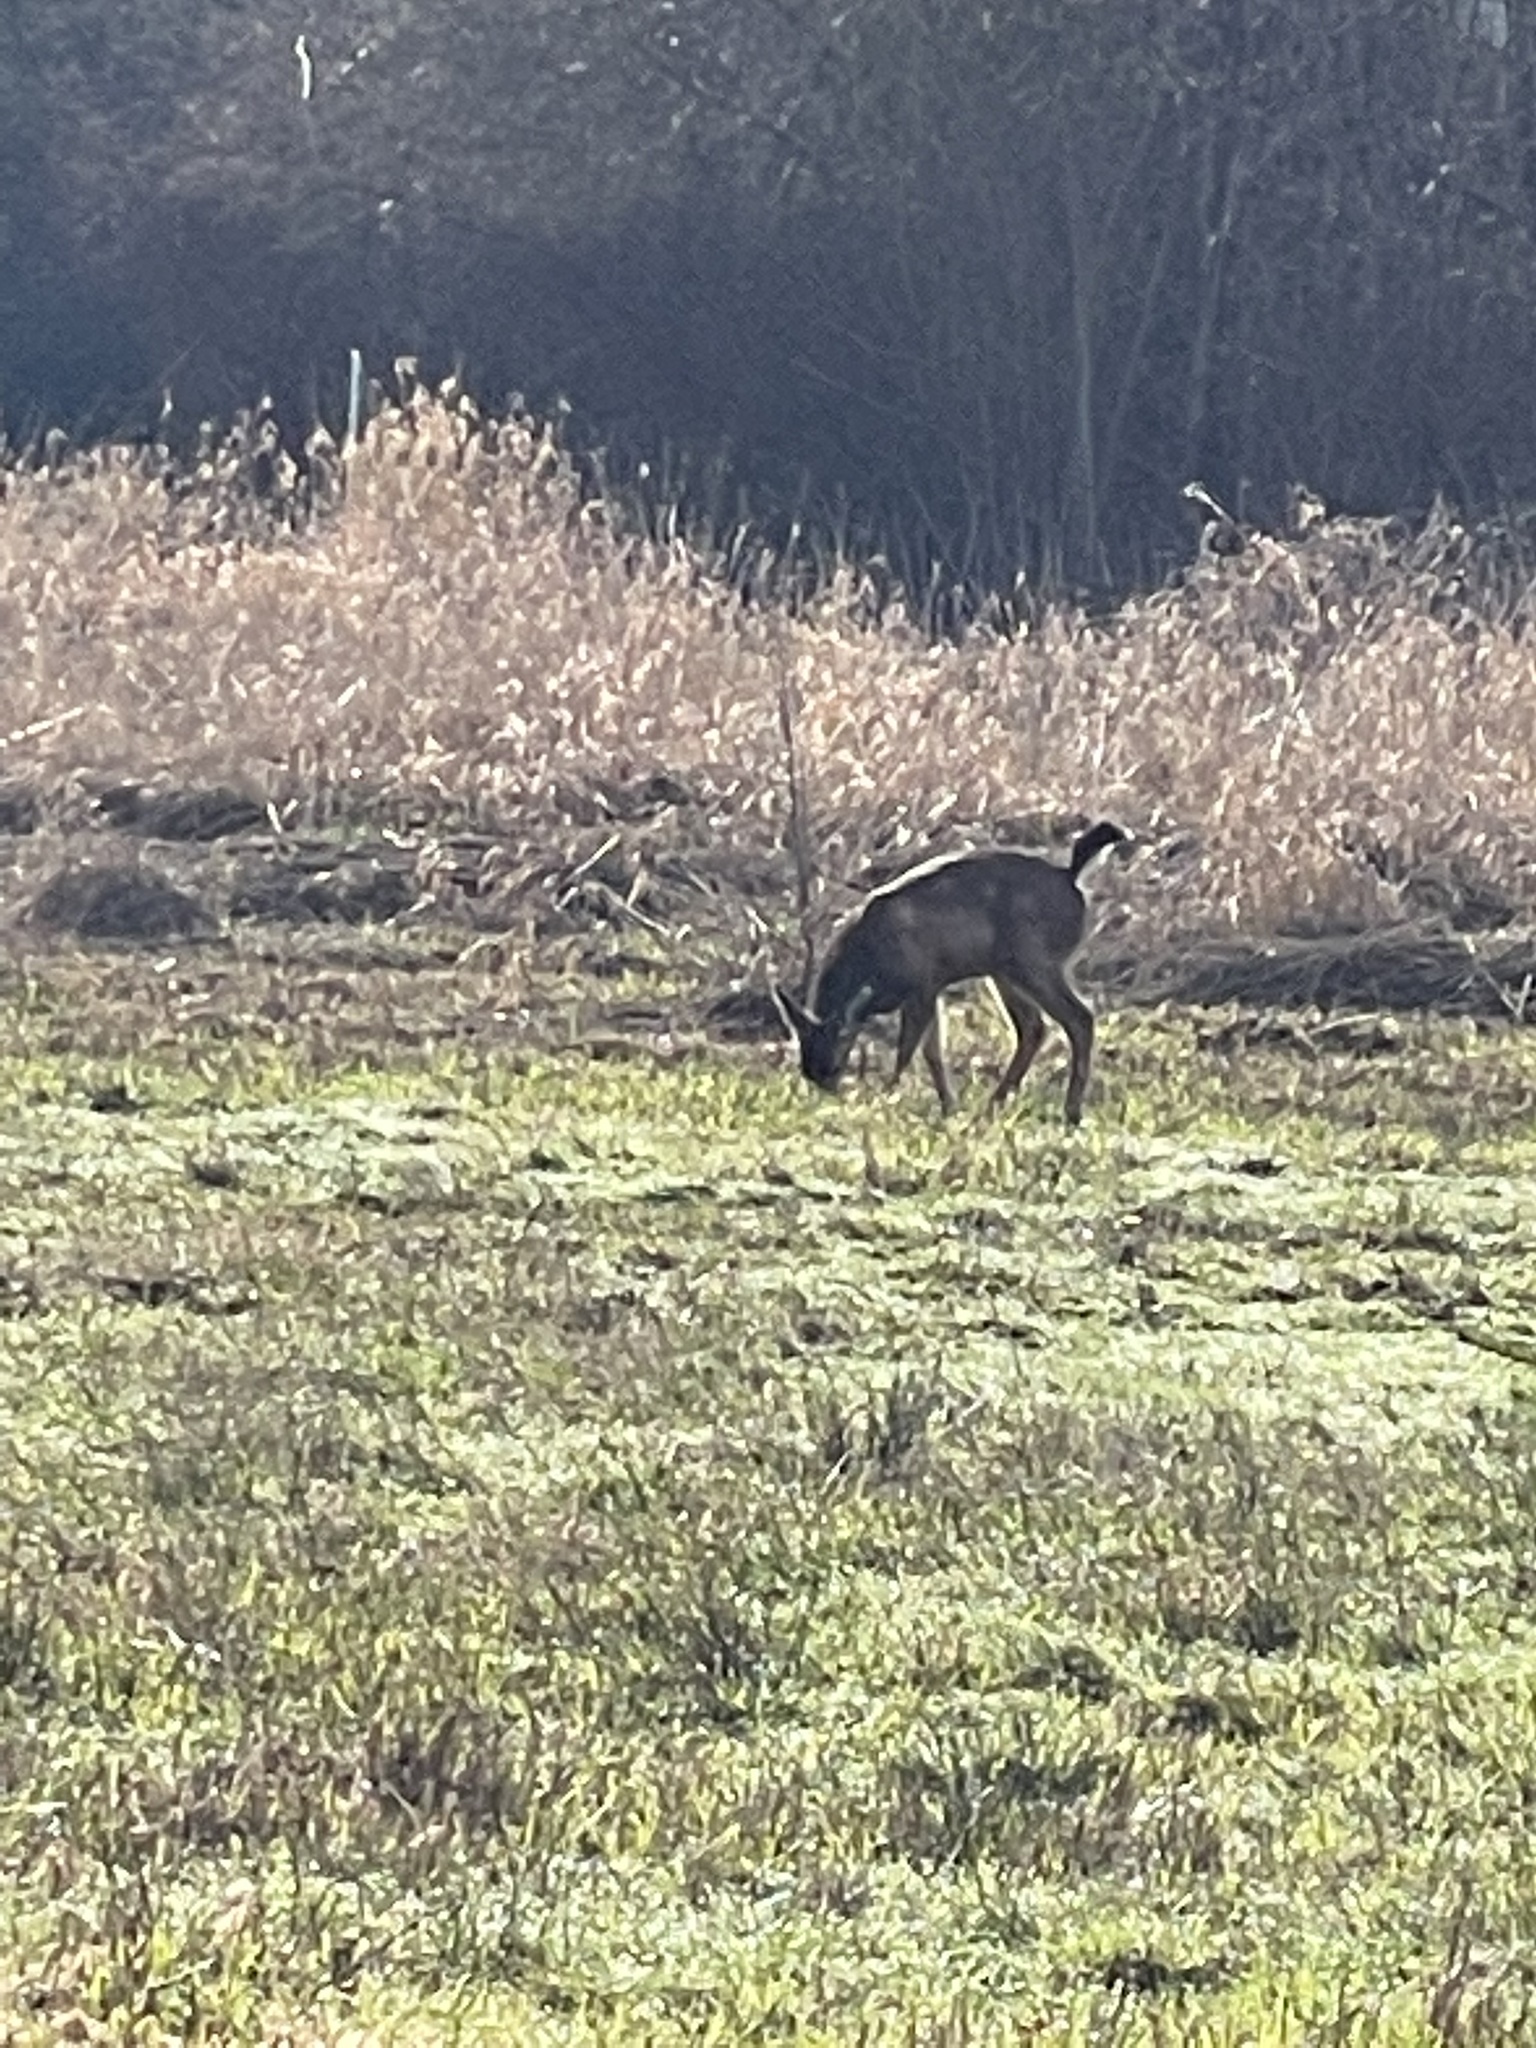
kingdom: Animalia
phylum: Chordata
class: Mammalia
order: Artiodactyla
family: Cervidae
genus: Odocoileus
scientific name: Odocoileus hemionus
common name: Mule deer
